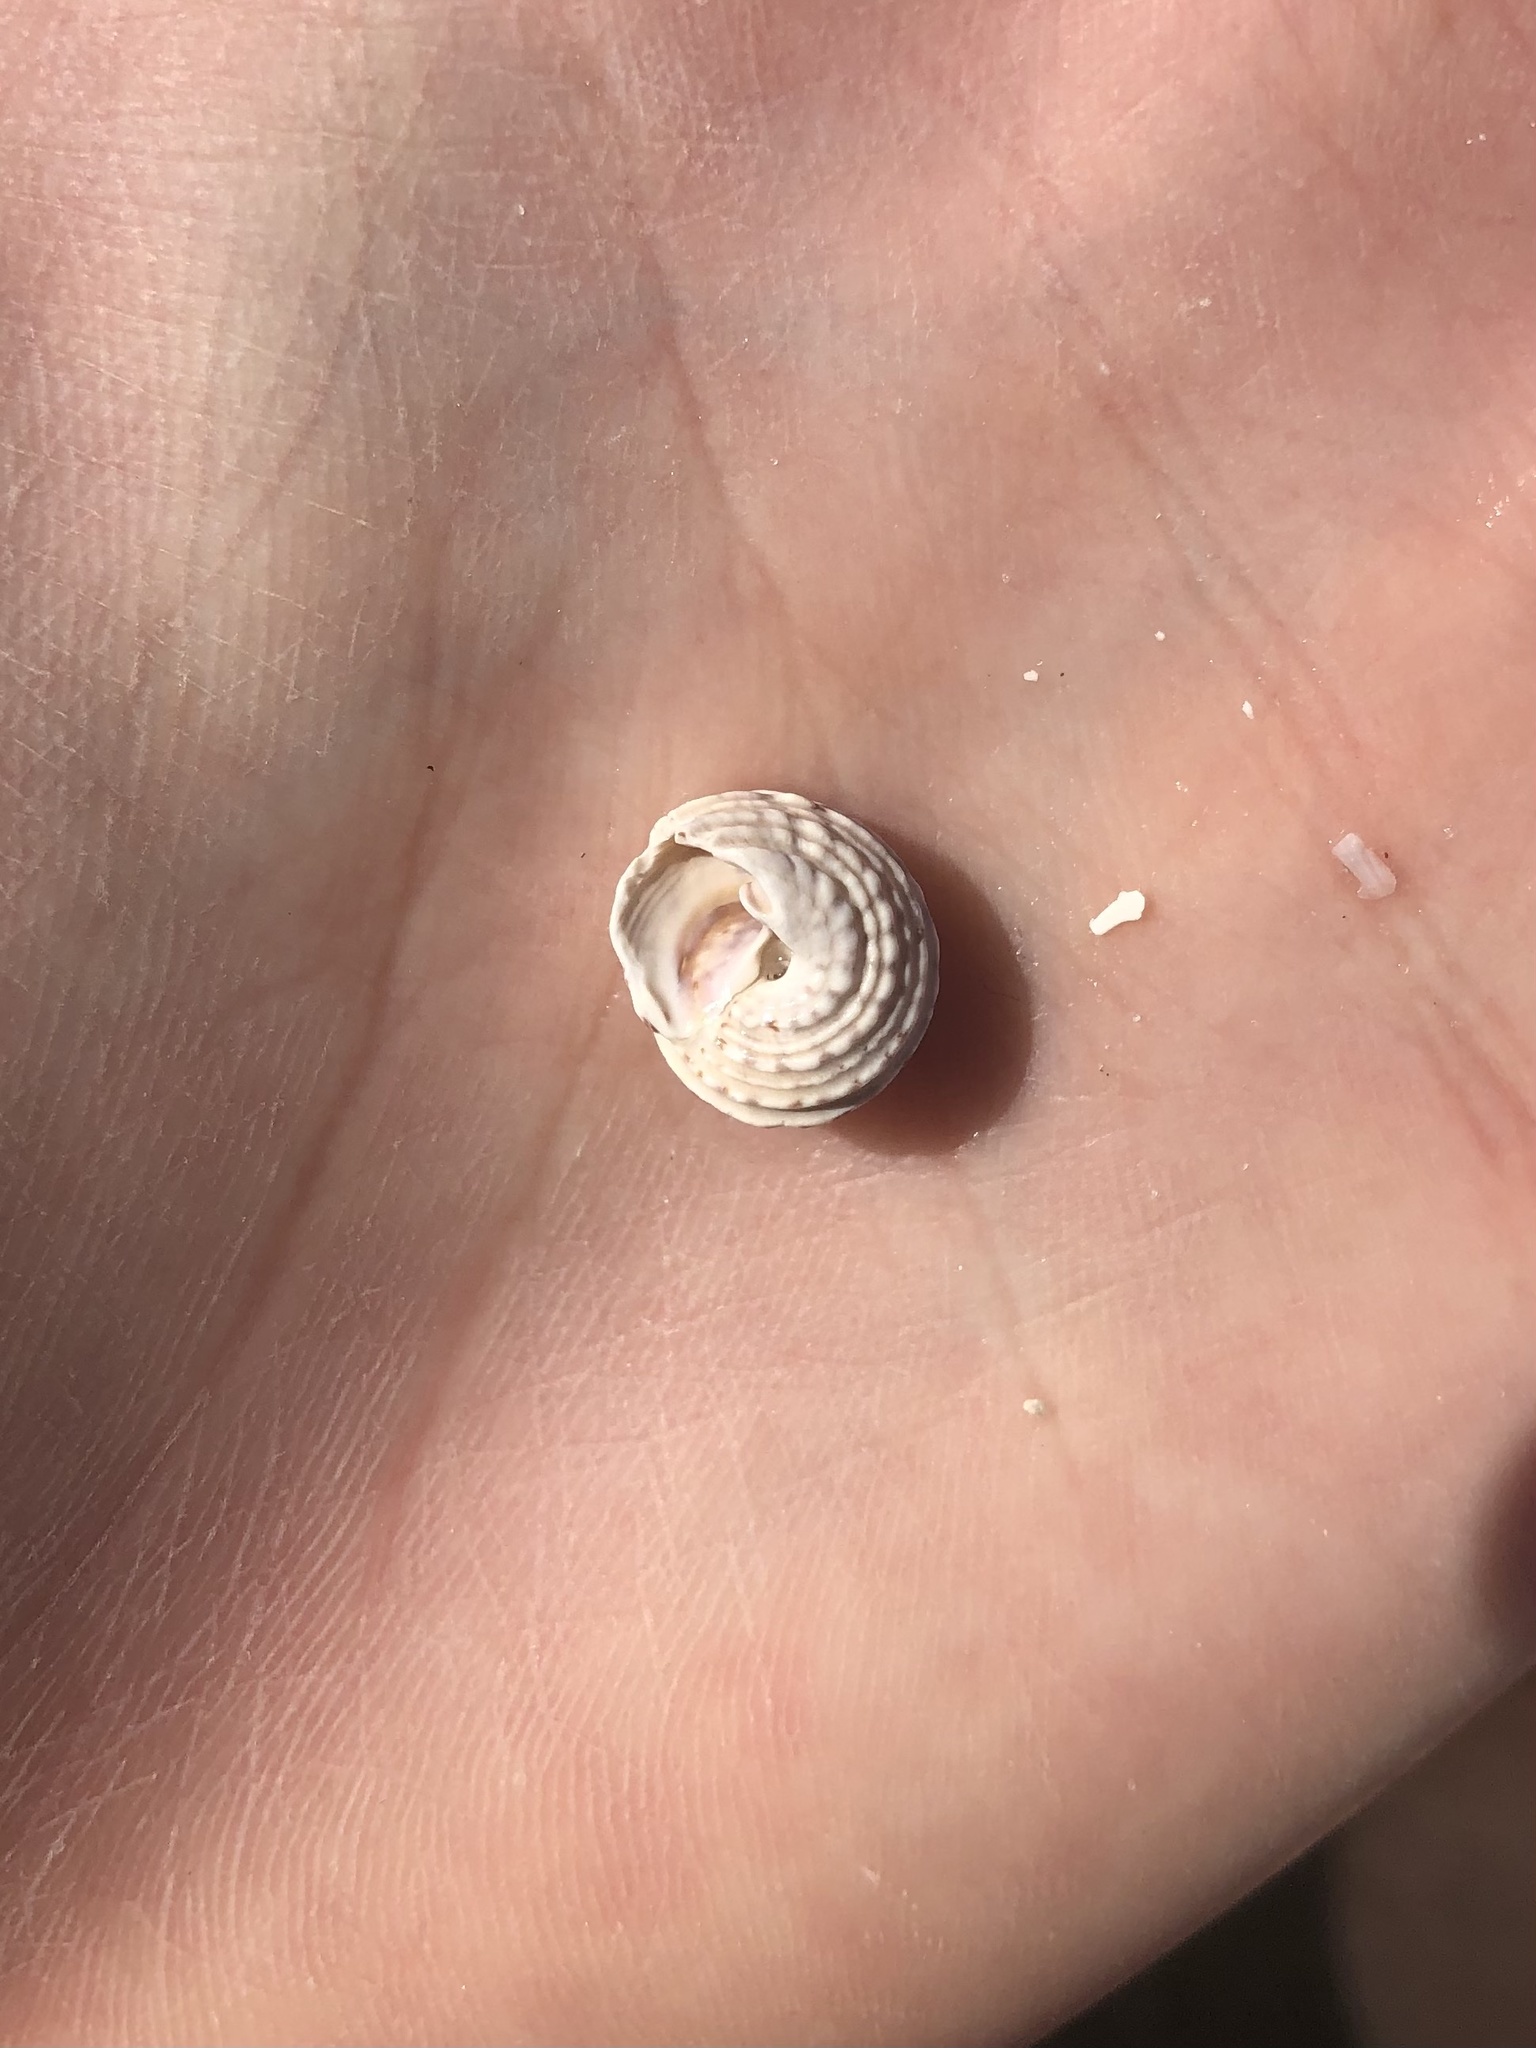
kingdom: Animalia
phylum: Mollusca
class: Gastropoda
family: Modulidae
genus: Modulus
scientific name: Modulus modulus
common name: Atlantic modulus
